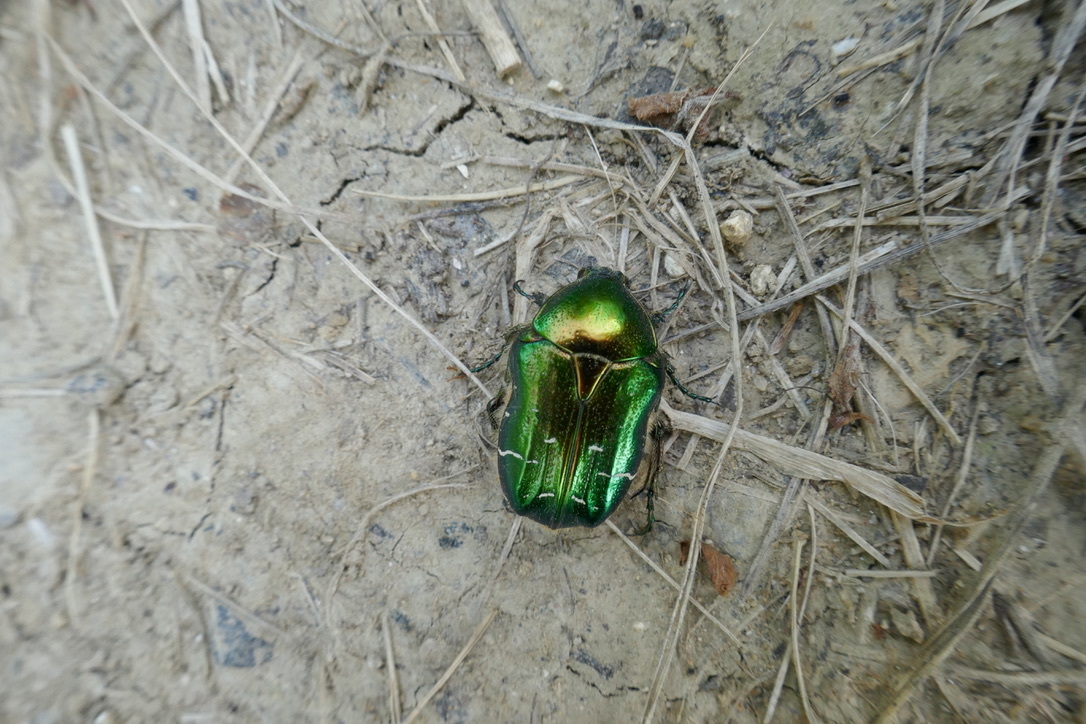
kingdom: Animalia
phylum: Arthropoda
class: Insecta
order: Coleoptera
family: Scarabaeidae
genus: Cetonia
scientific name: Cetonia aurata
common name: Rose chafer
